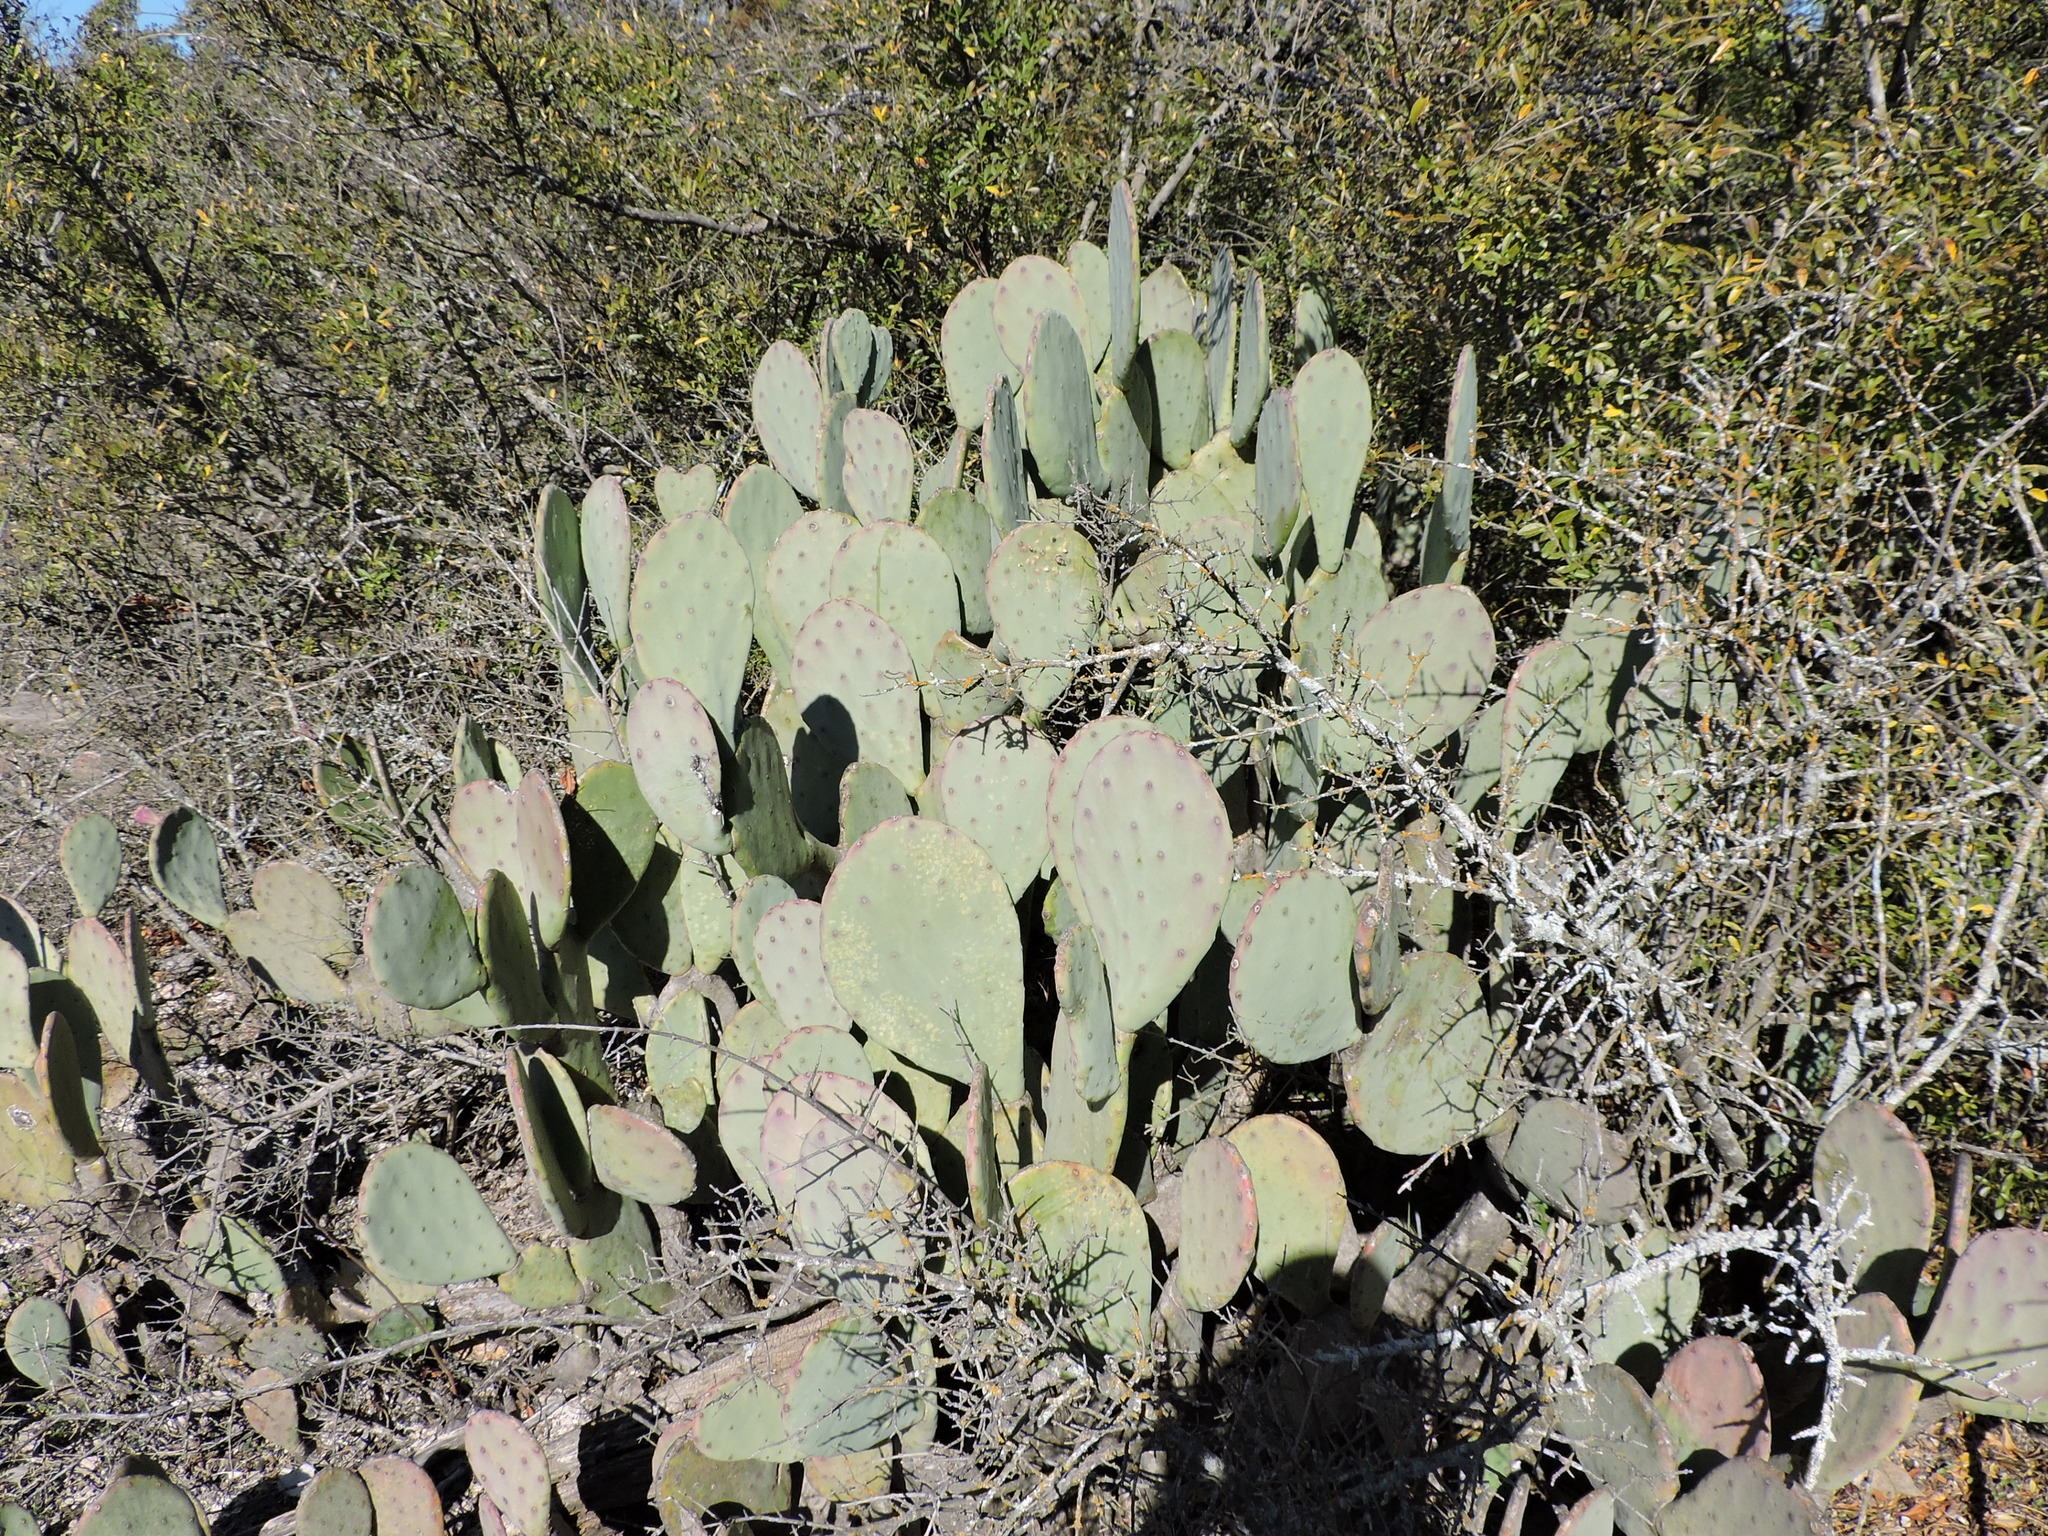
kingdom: Plantae
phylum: Tracheophyta
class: Magnoliopsida
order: Caryophyllales
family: Cactaceae
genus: Opuntia
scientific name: Opuntia engelmannii
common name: Cactus-apple
